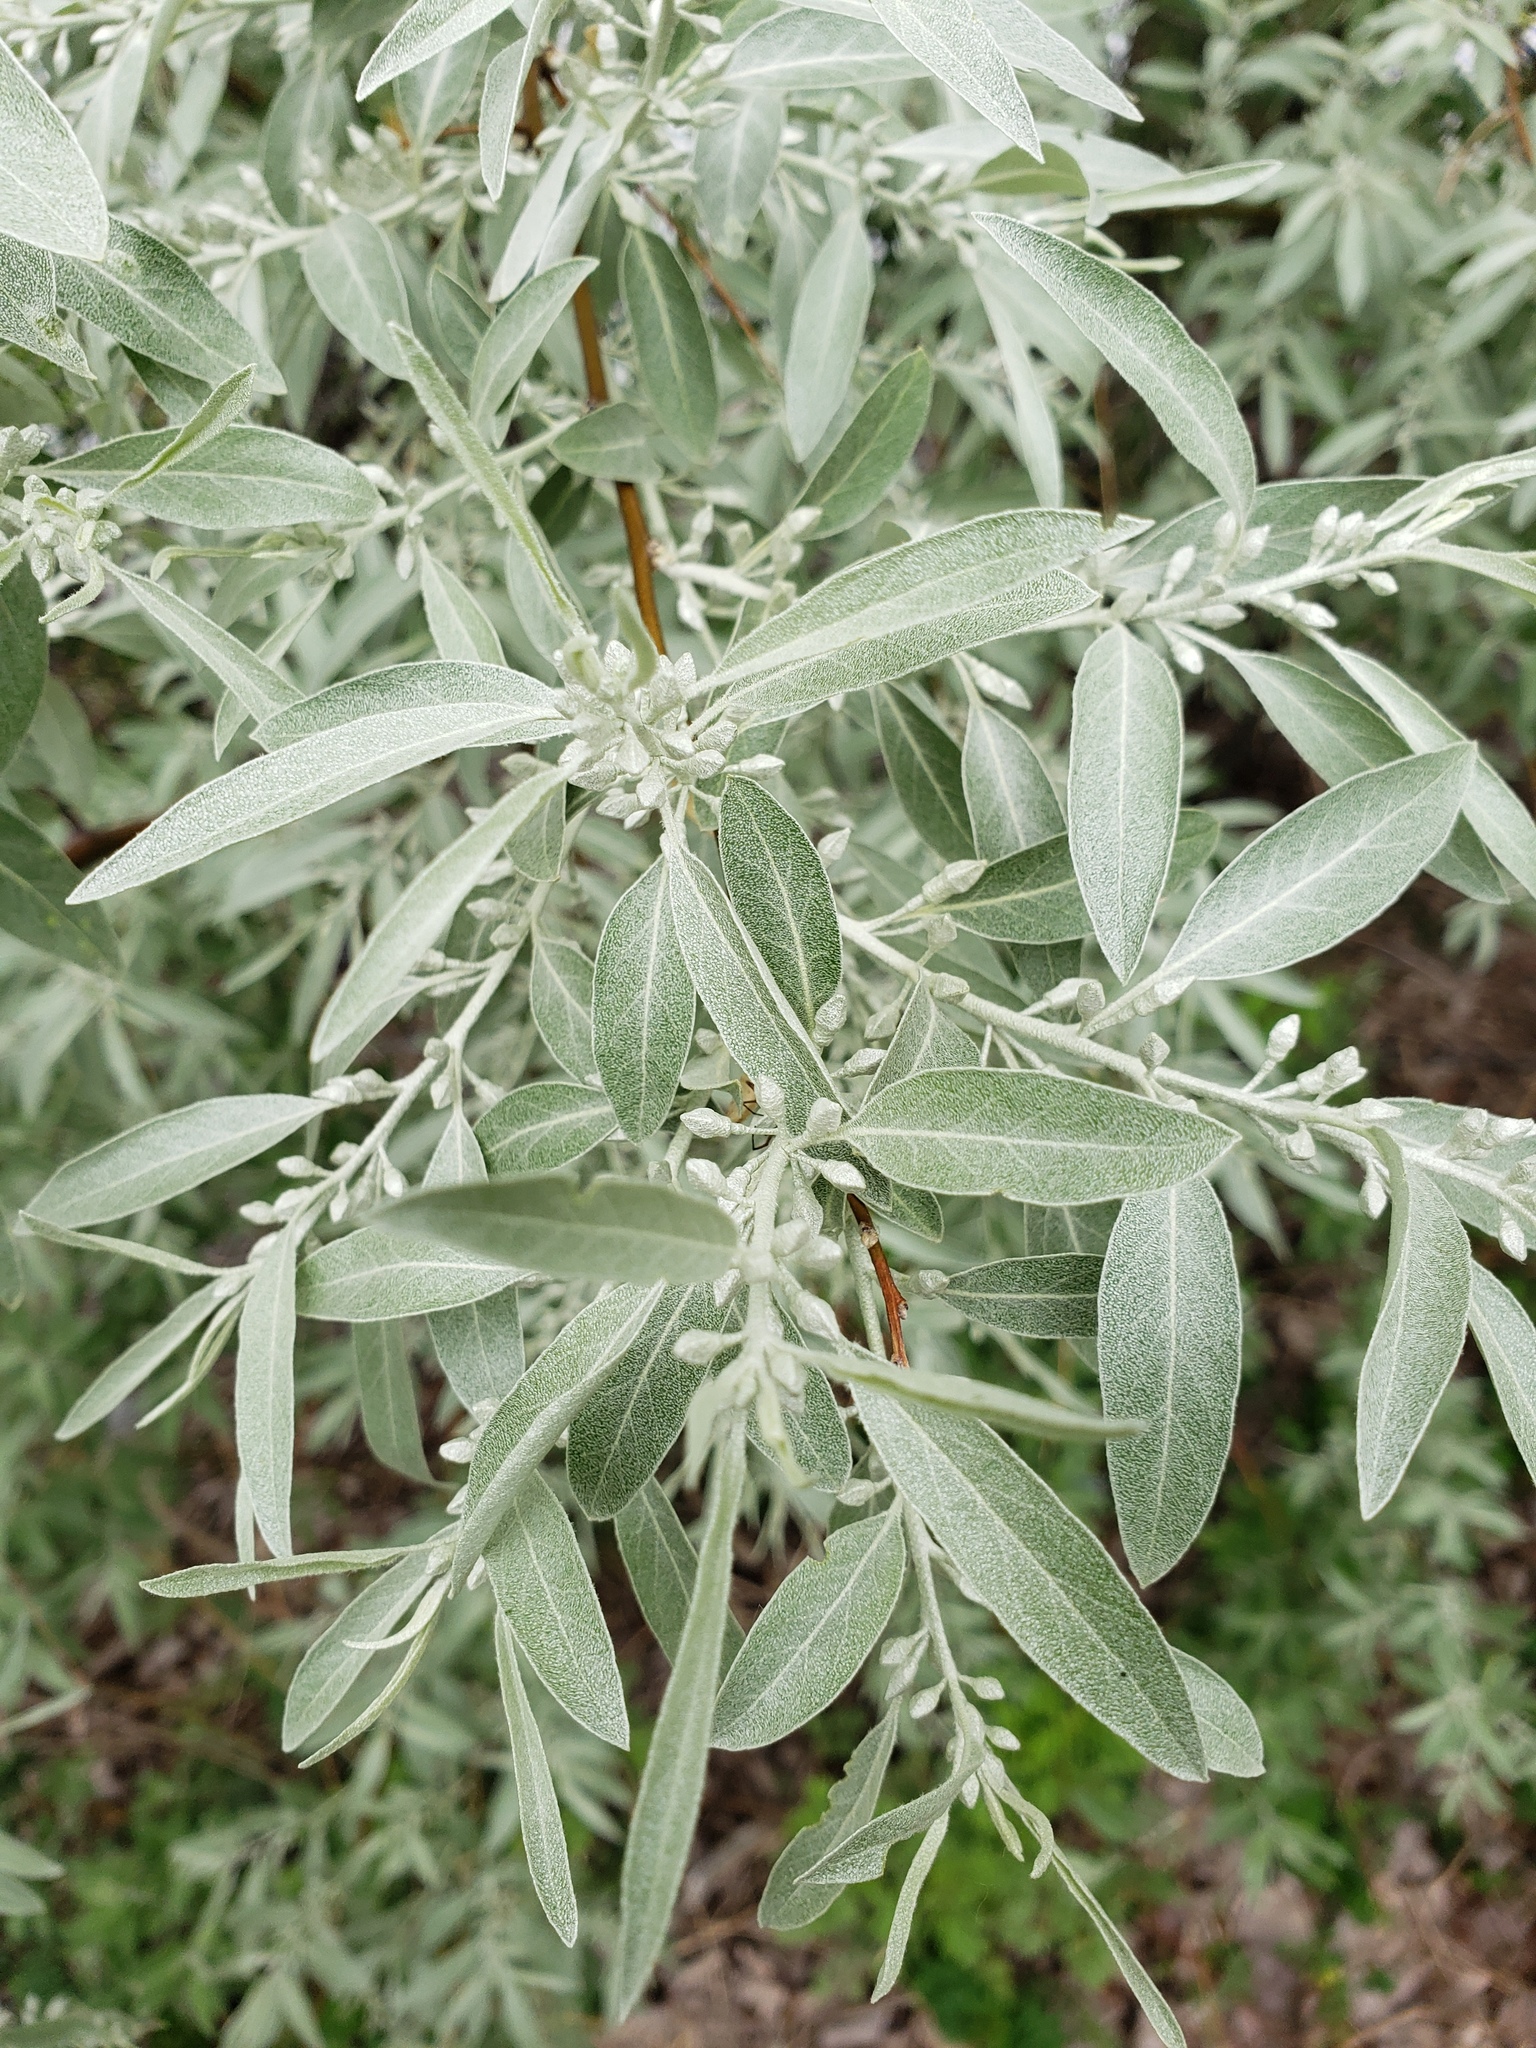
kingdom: Plantae
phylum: Tracheophyta
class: Magnoliopsida
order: Rosales
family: Elaeagnaceae
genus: Elaeagnus
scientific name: Elaeagnus angustifolia
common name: Russian olive
